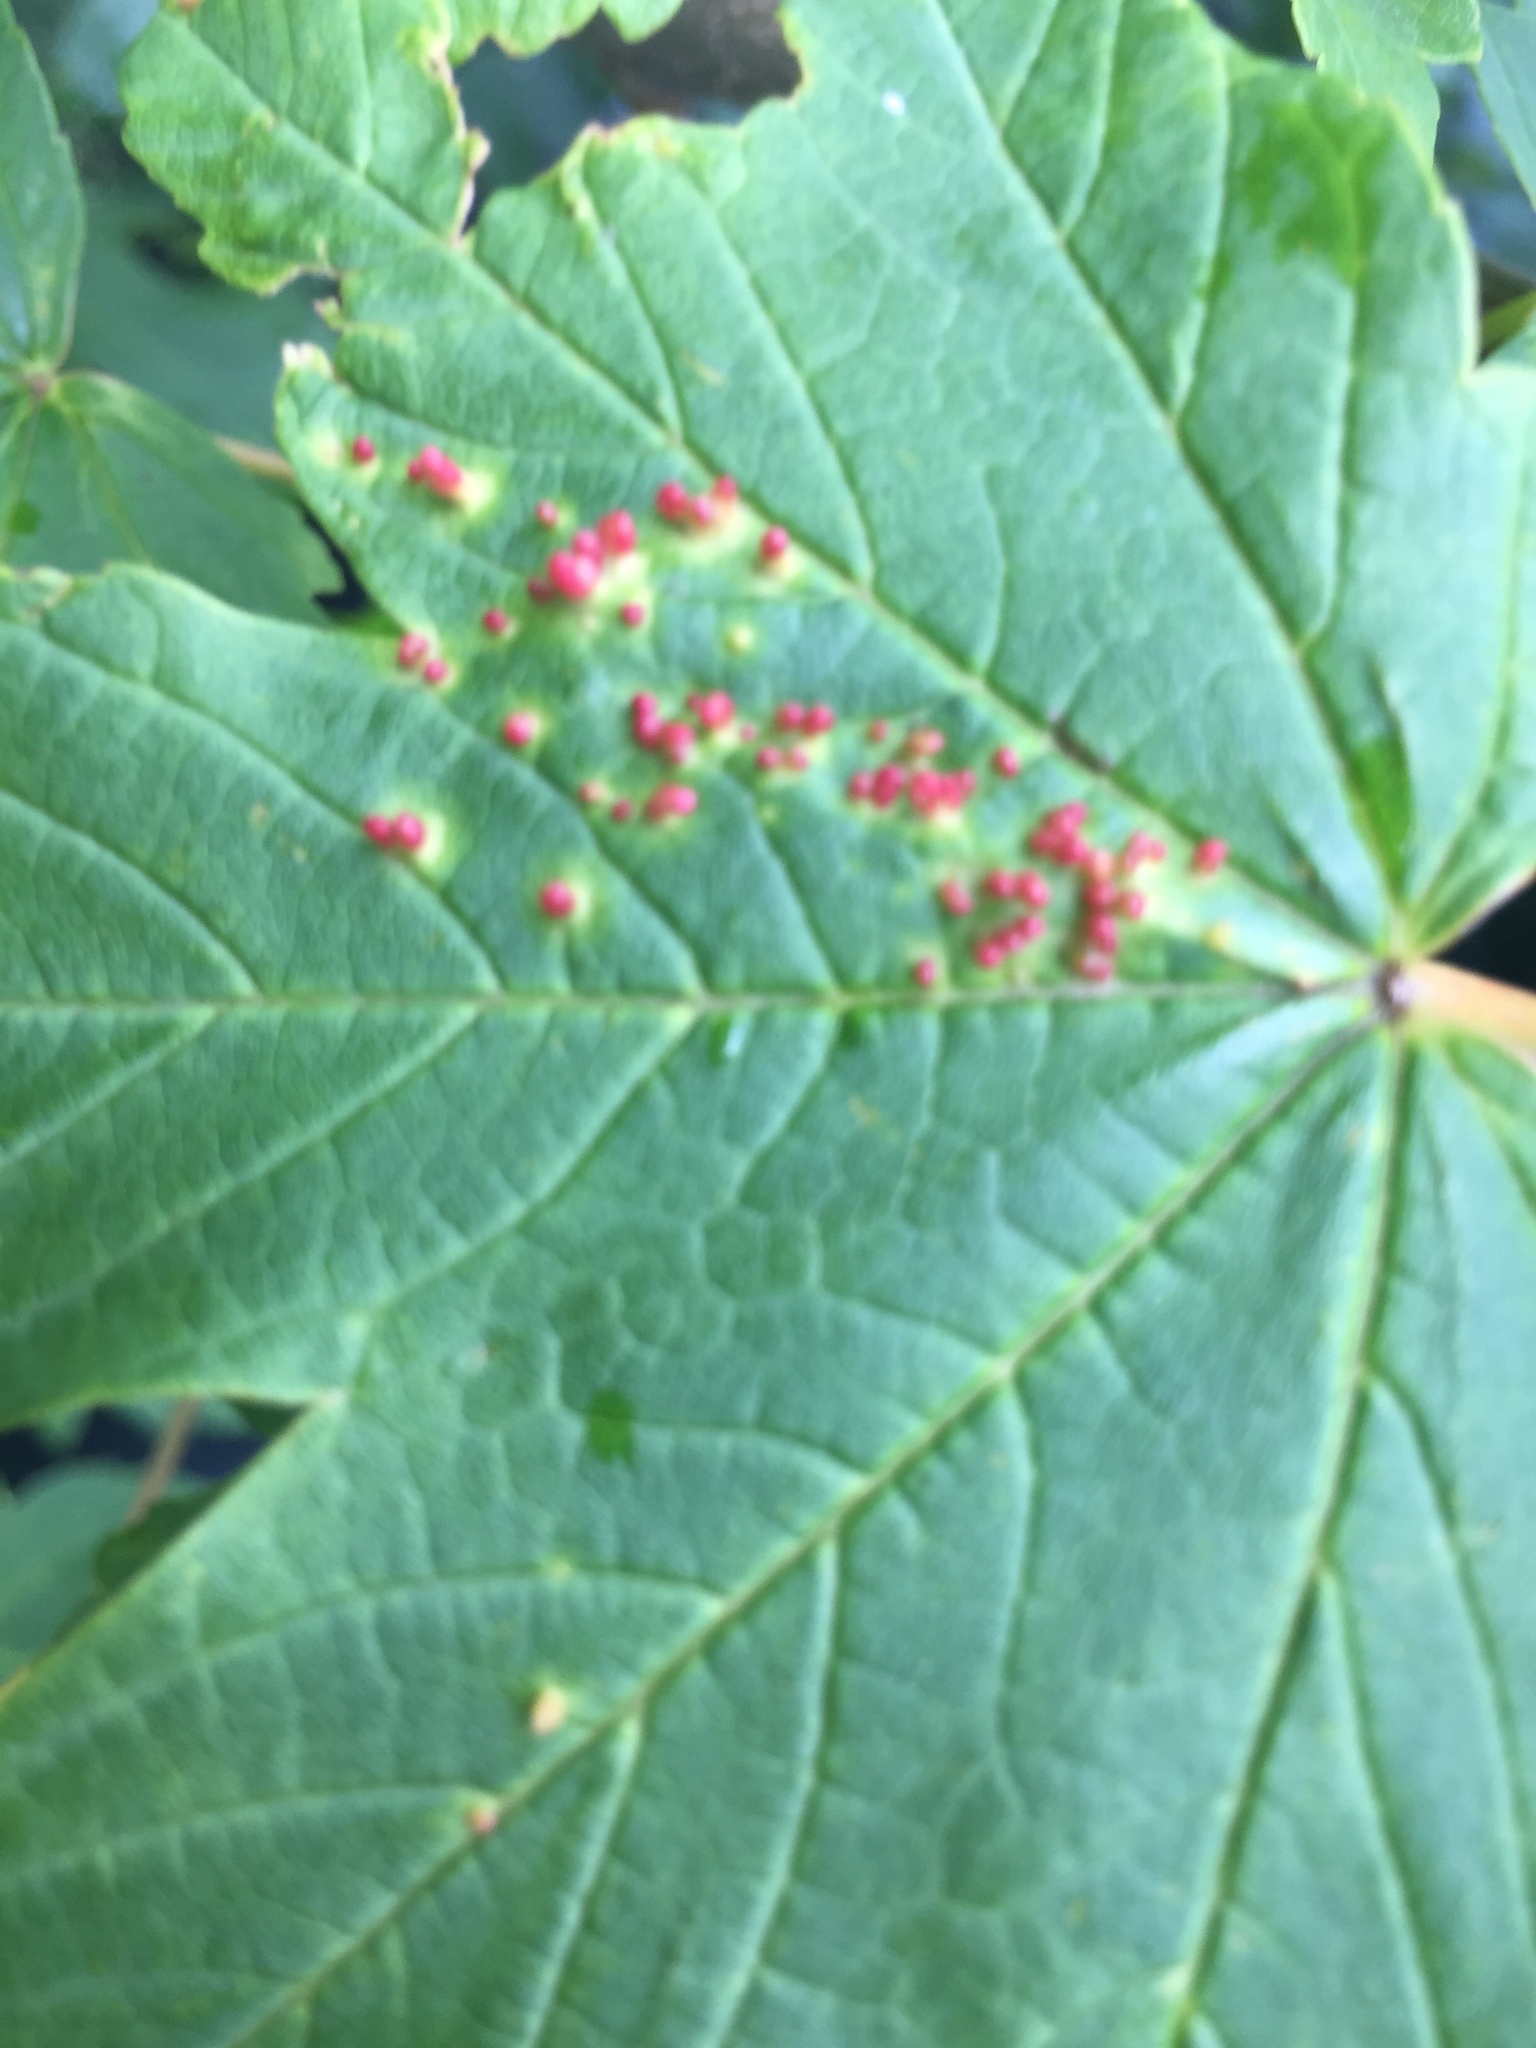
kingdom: Animalia
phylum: Arthropoda
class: Arachnida
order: Trombidiformes
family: Eriophyidae
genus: Aceria
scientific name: Aceria cephaloneus
